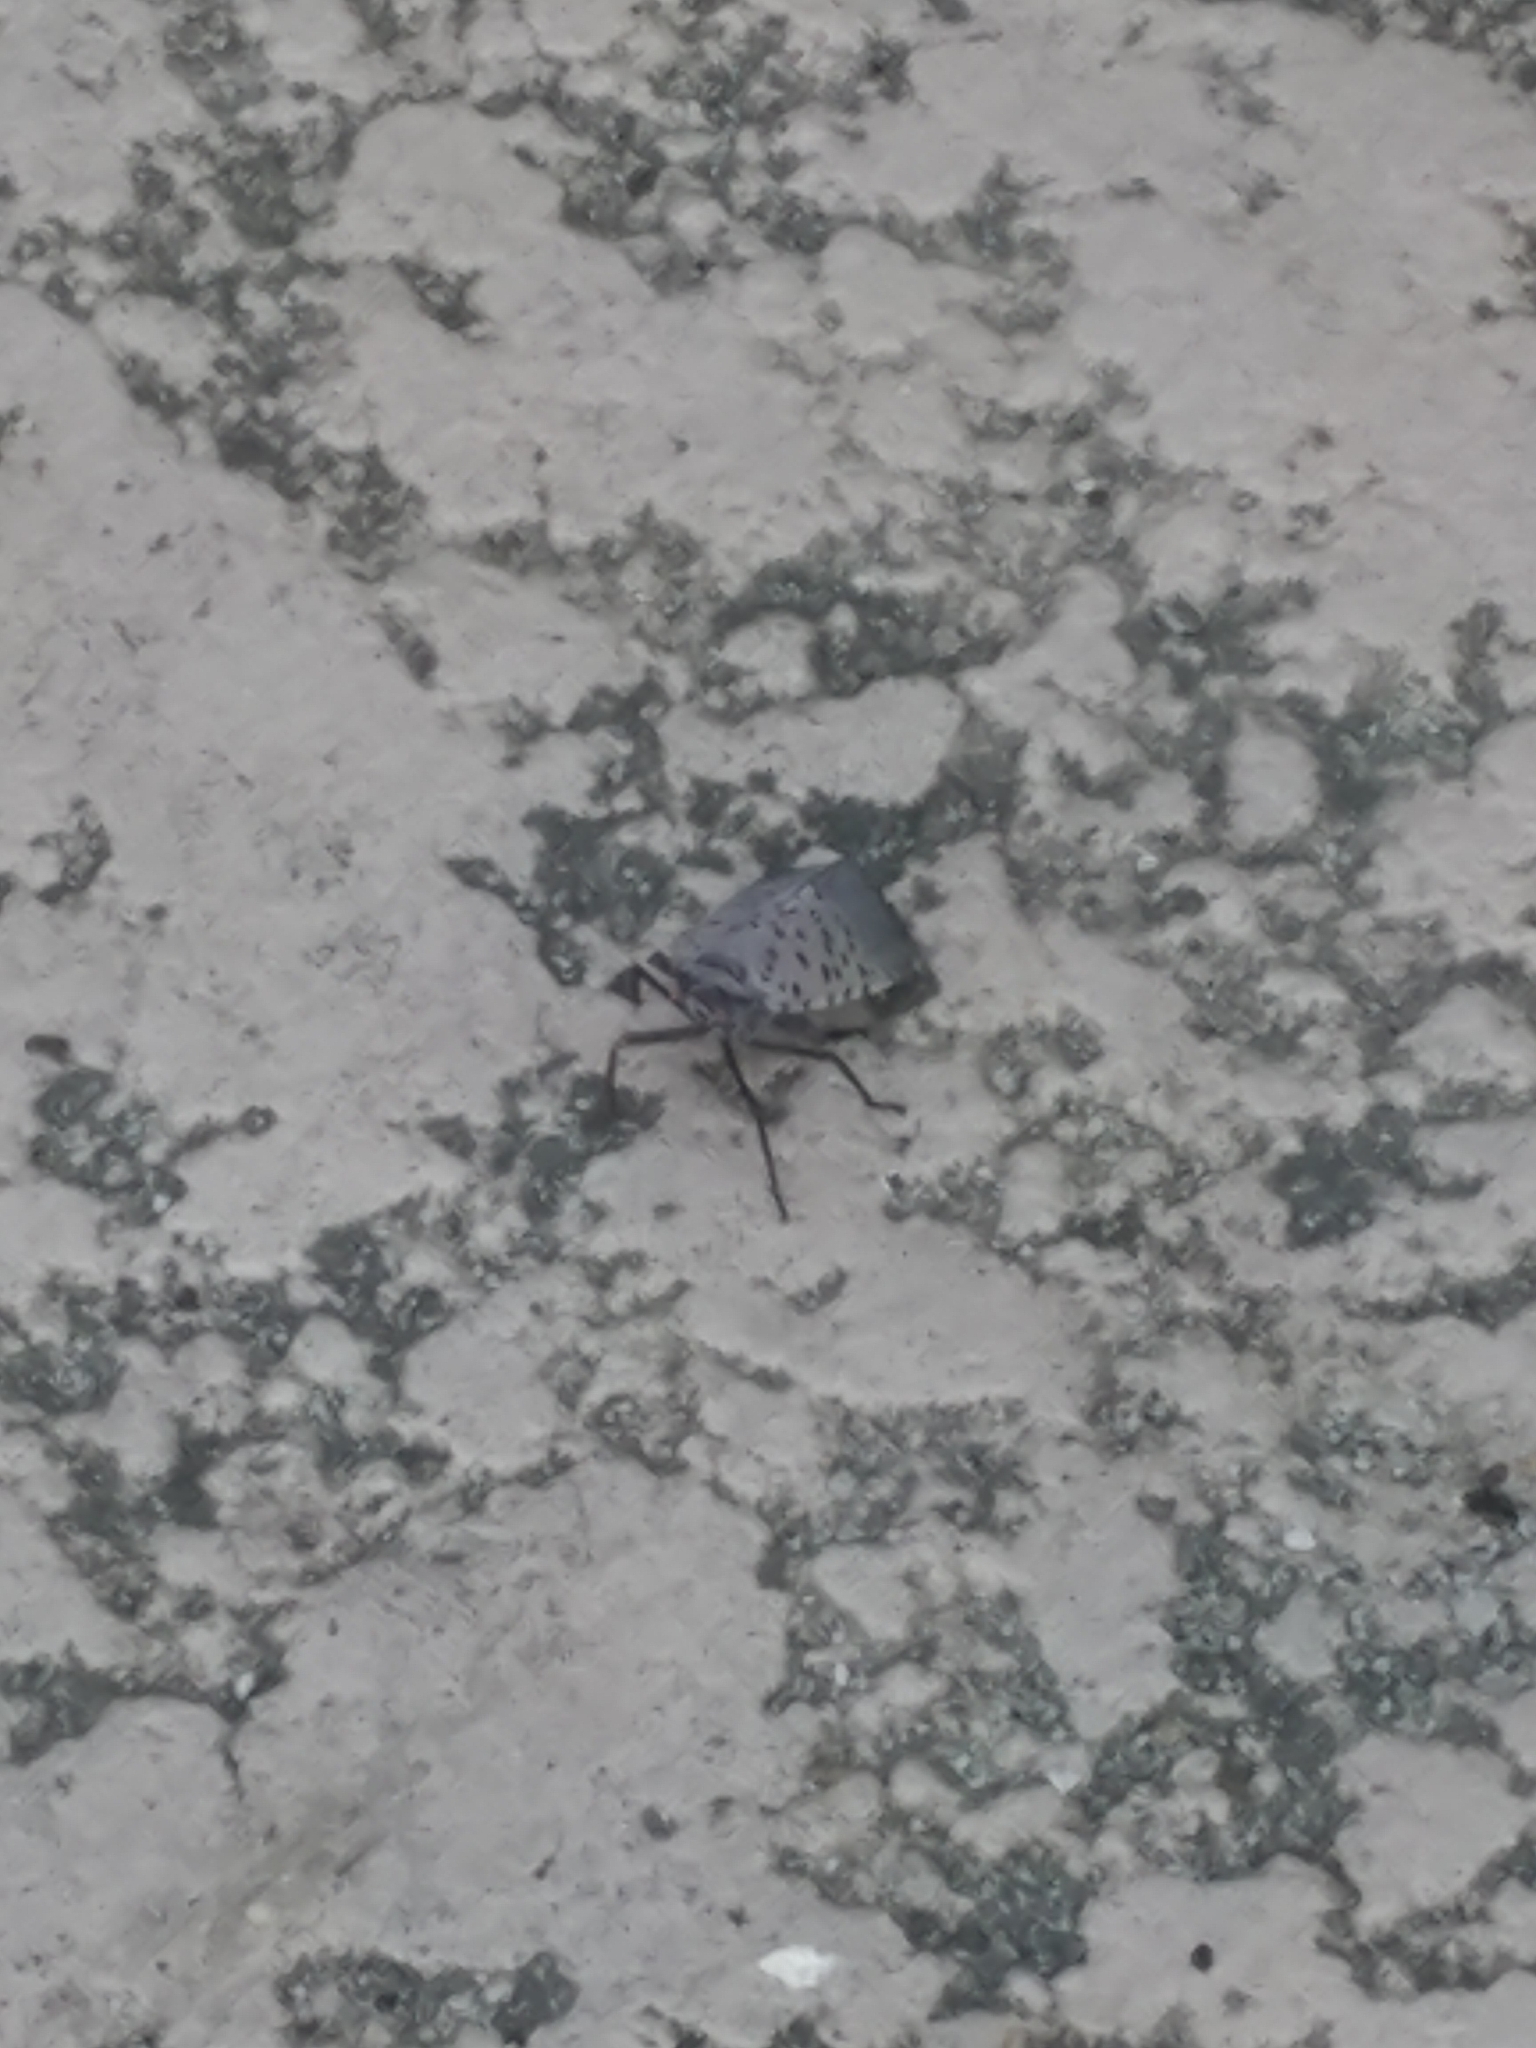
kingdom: Animalia
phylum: Arthropoda
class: Insecta
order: Hemiptera
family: Fulgoridae
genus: Lycorma
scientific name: Lycorma delicatula
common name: Spotted lanternfly
